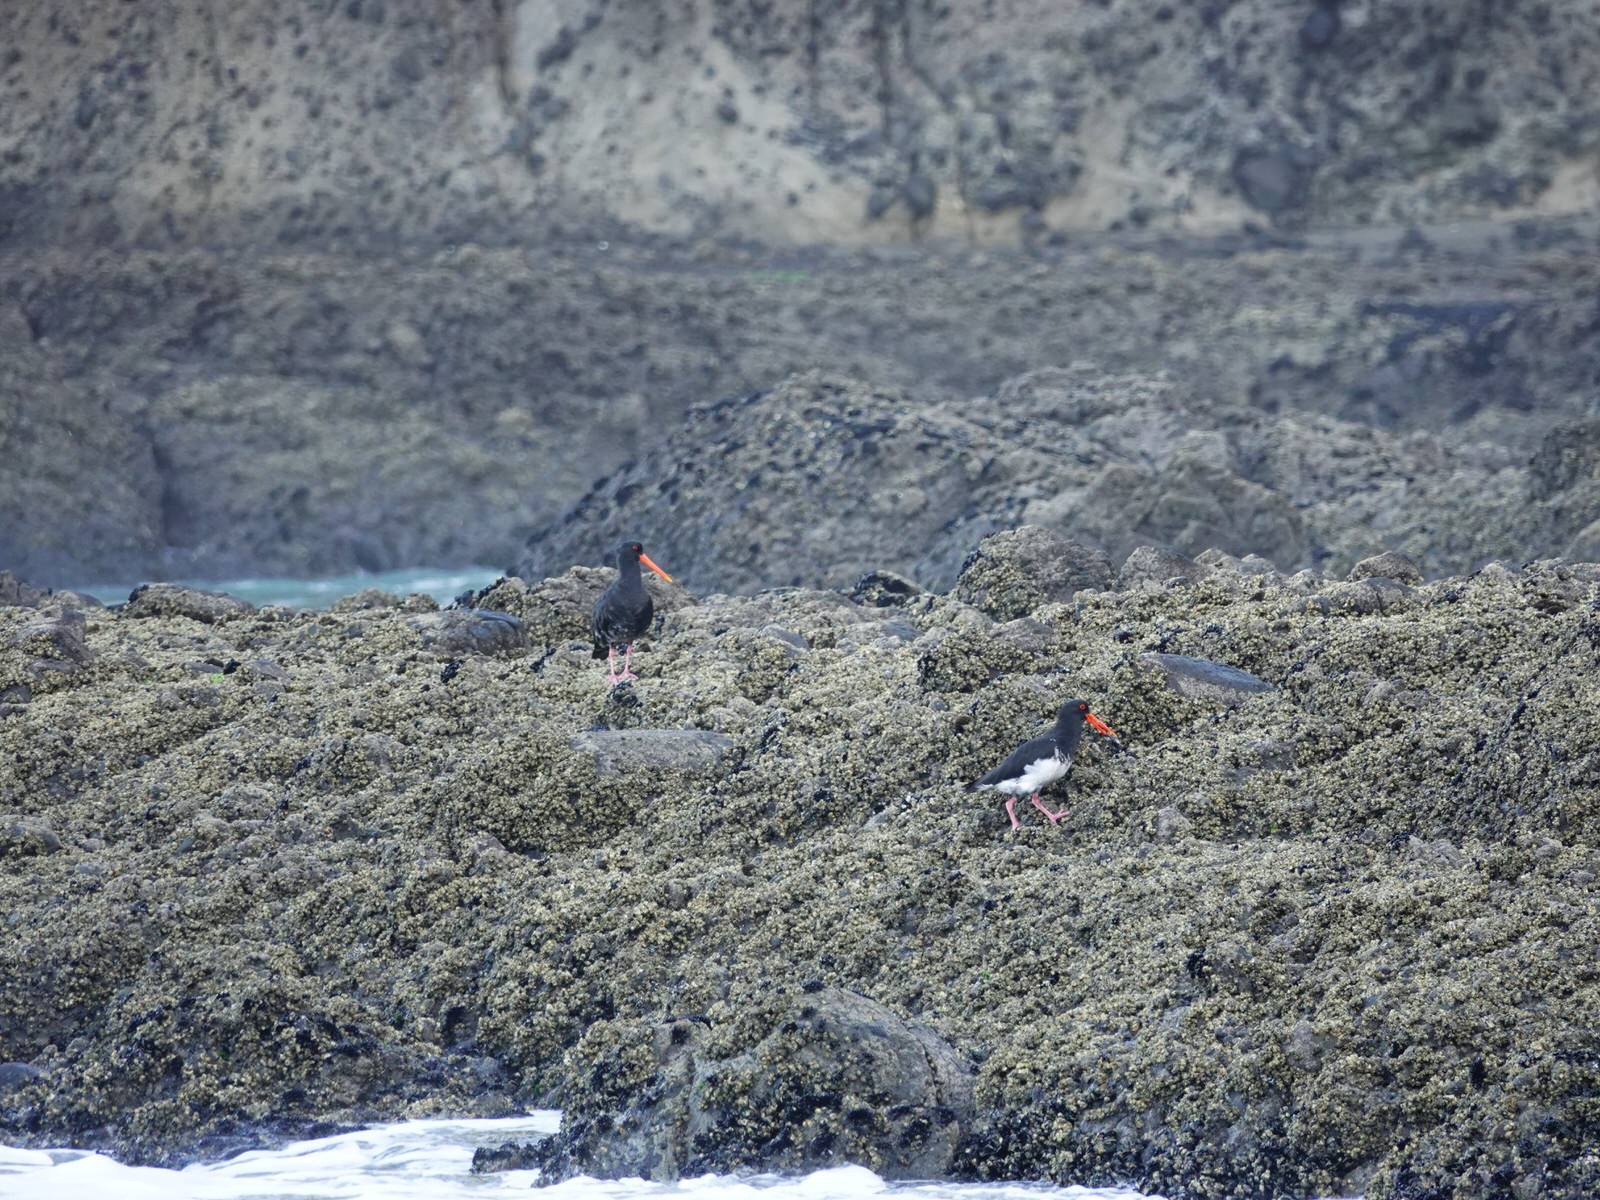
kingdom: Animalia
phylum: Chordata
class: Aves
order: Charadriiformes
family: Haematopodidae
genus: Haematopus
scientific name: Haematopus unicolor
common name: Variable oystercatcher
